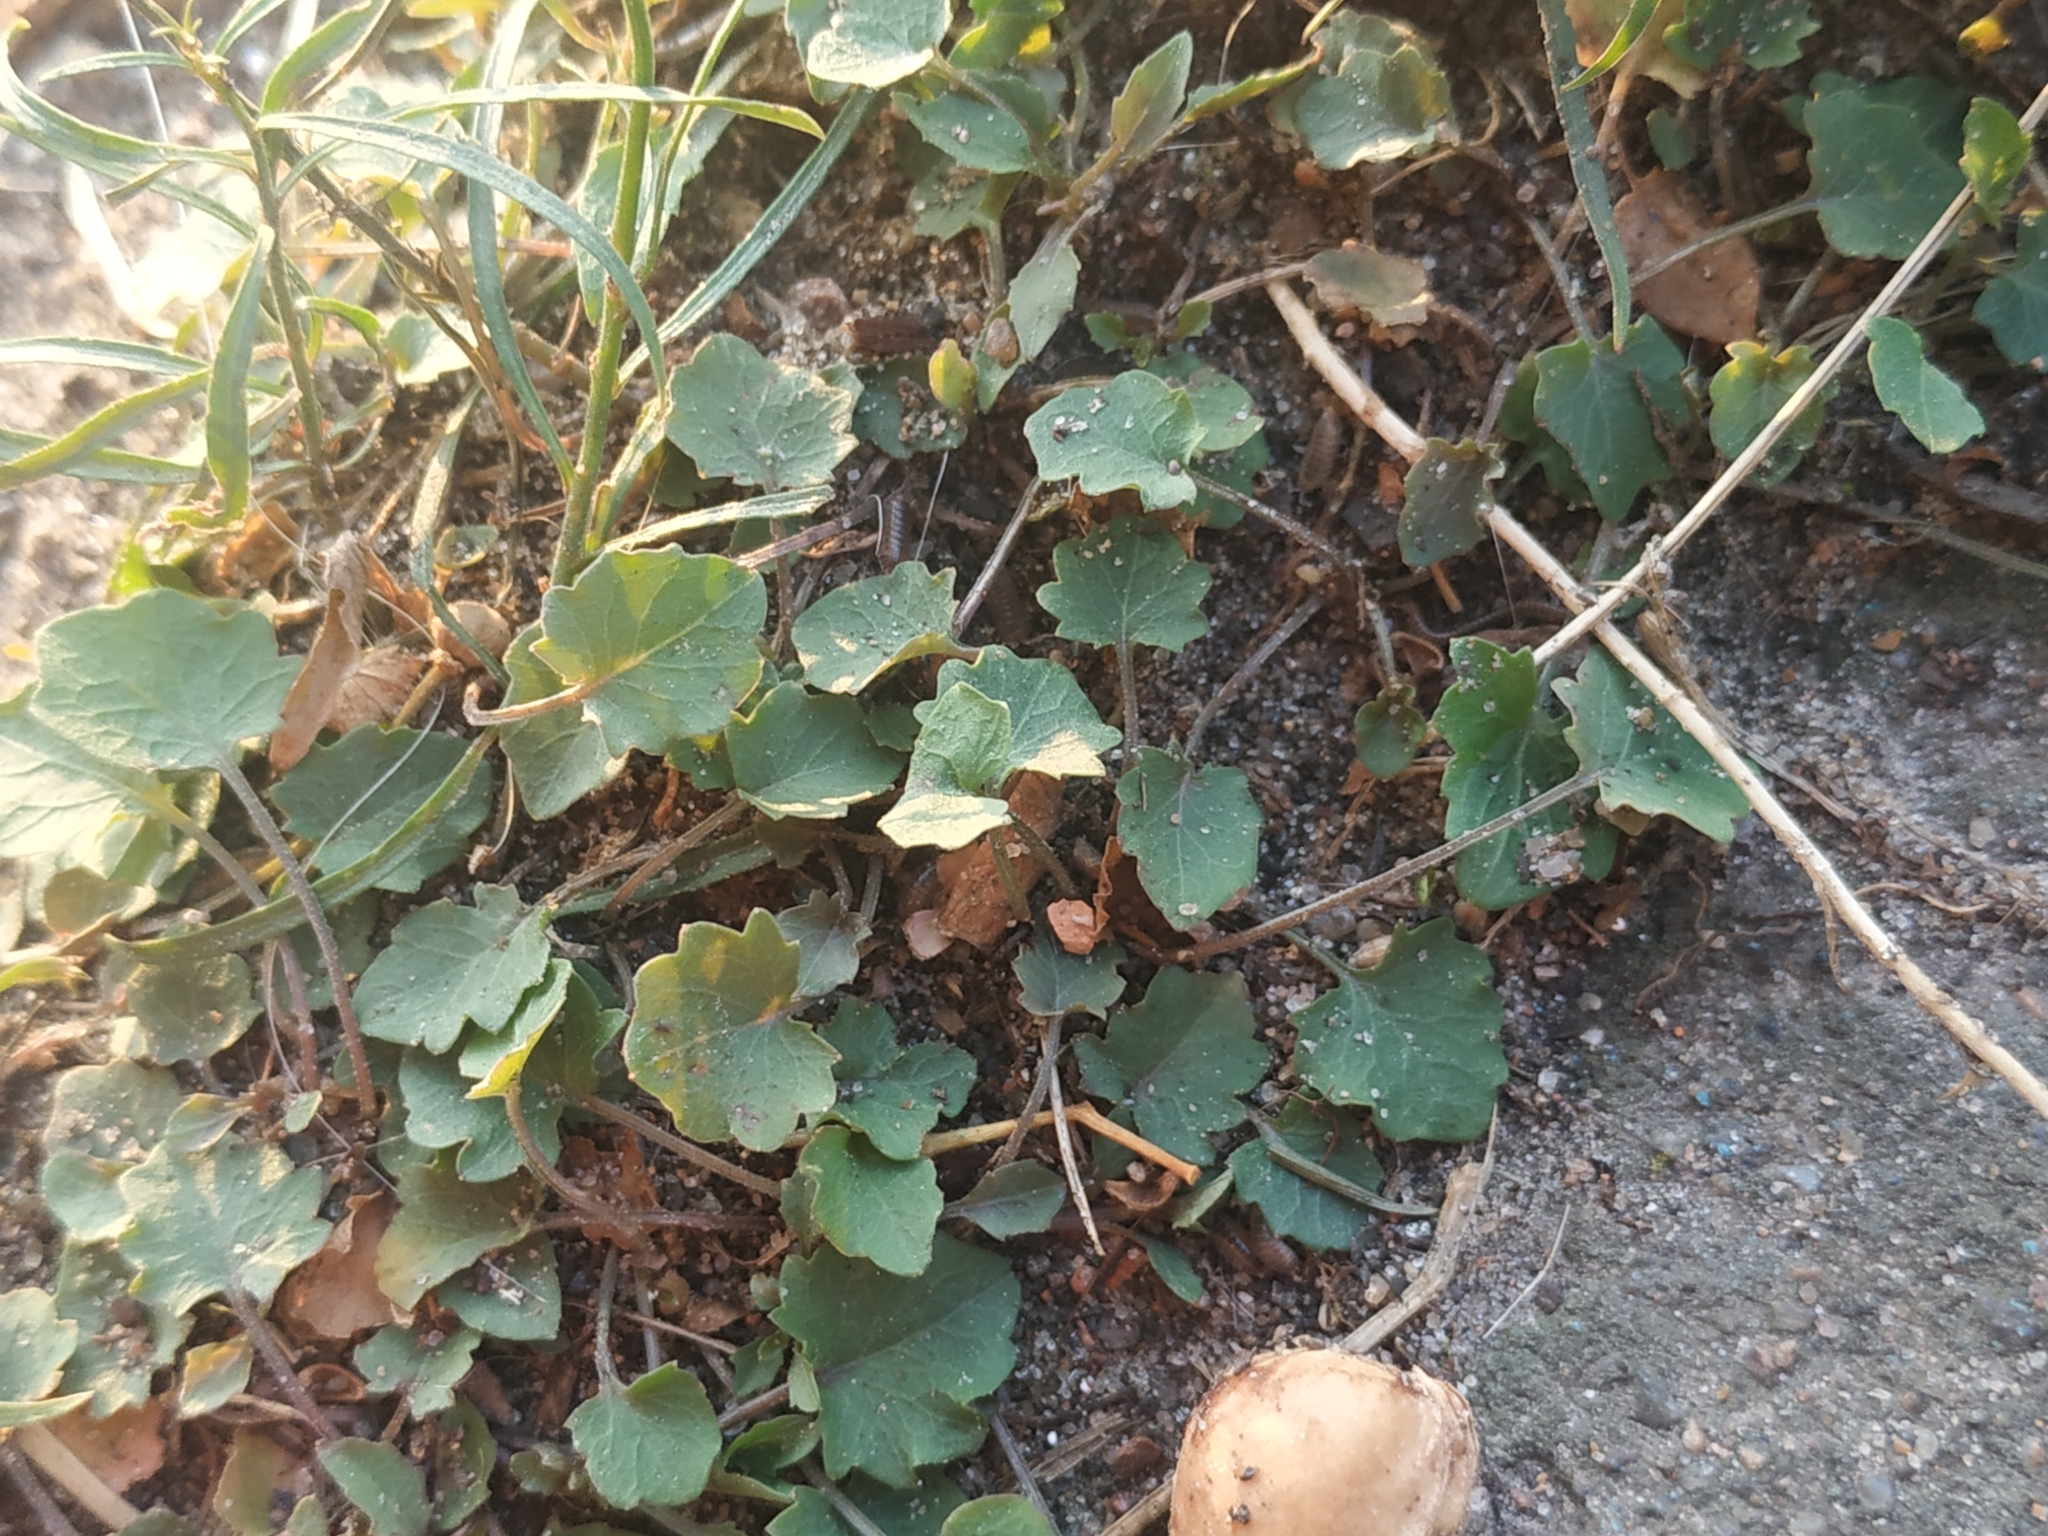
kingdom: Plantae
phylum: Tracheophyta
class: Magnoliopsida
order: Asterales
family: Asteraceae
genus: Tussilago
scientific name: Tussilago farfara
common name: Coltsfoot
